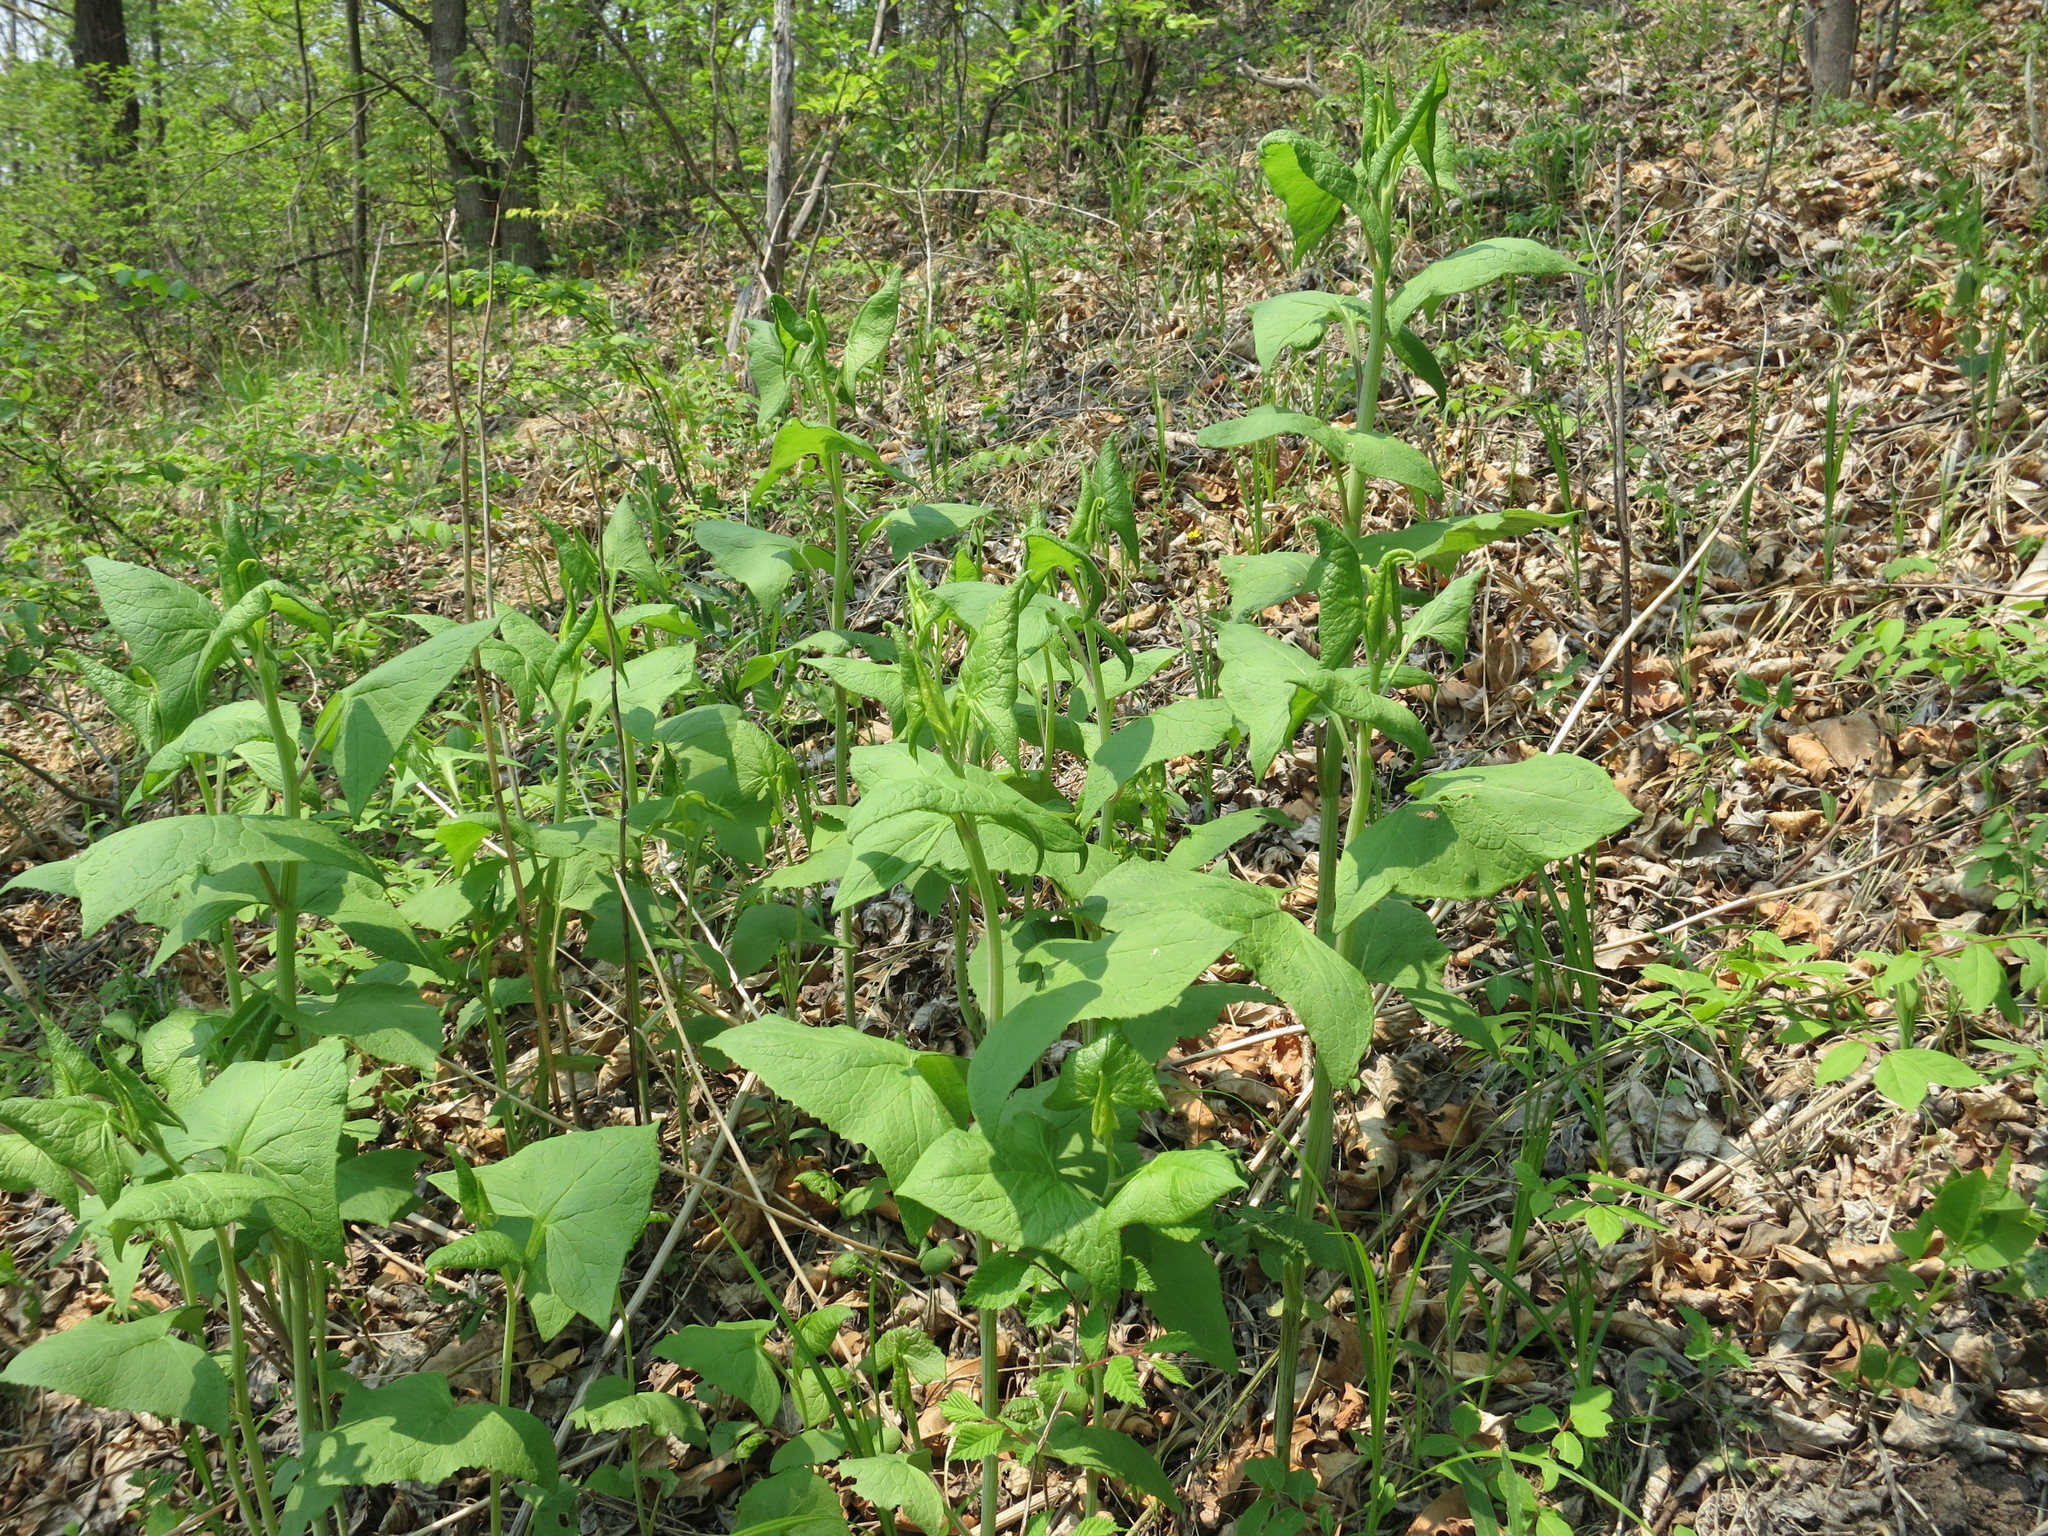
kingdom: Plantae
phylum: Tracheophyta
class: Magnoliopsida
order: Asterales
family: Asteraceae
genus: Parasenecio
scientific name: Parasenecio hastatus
